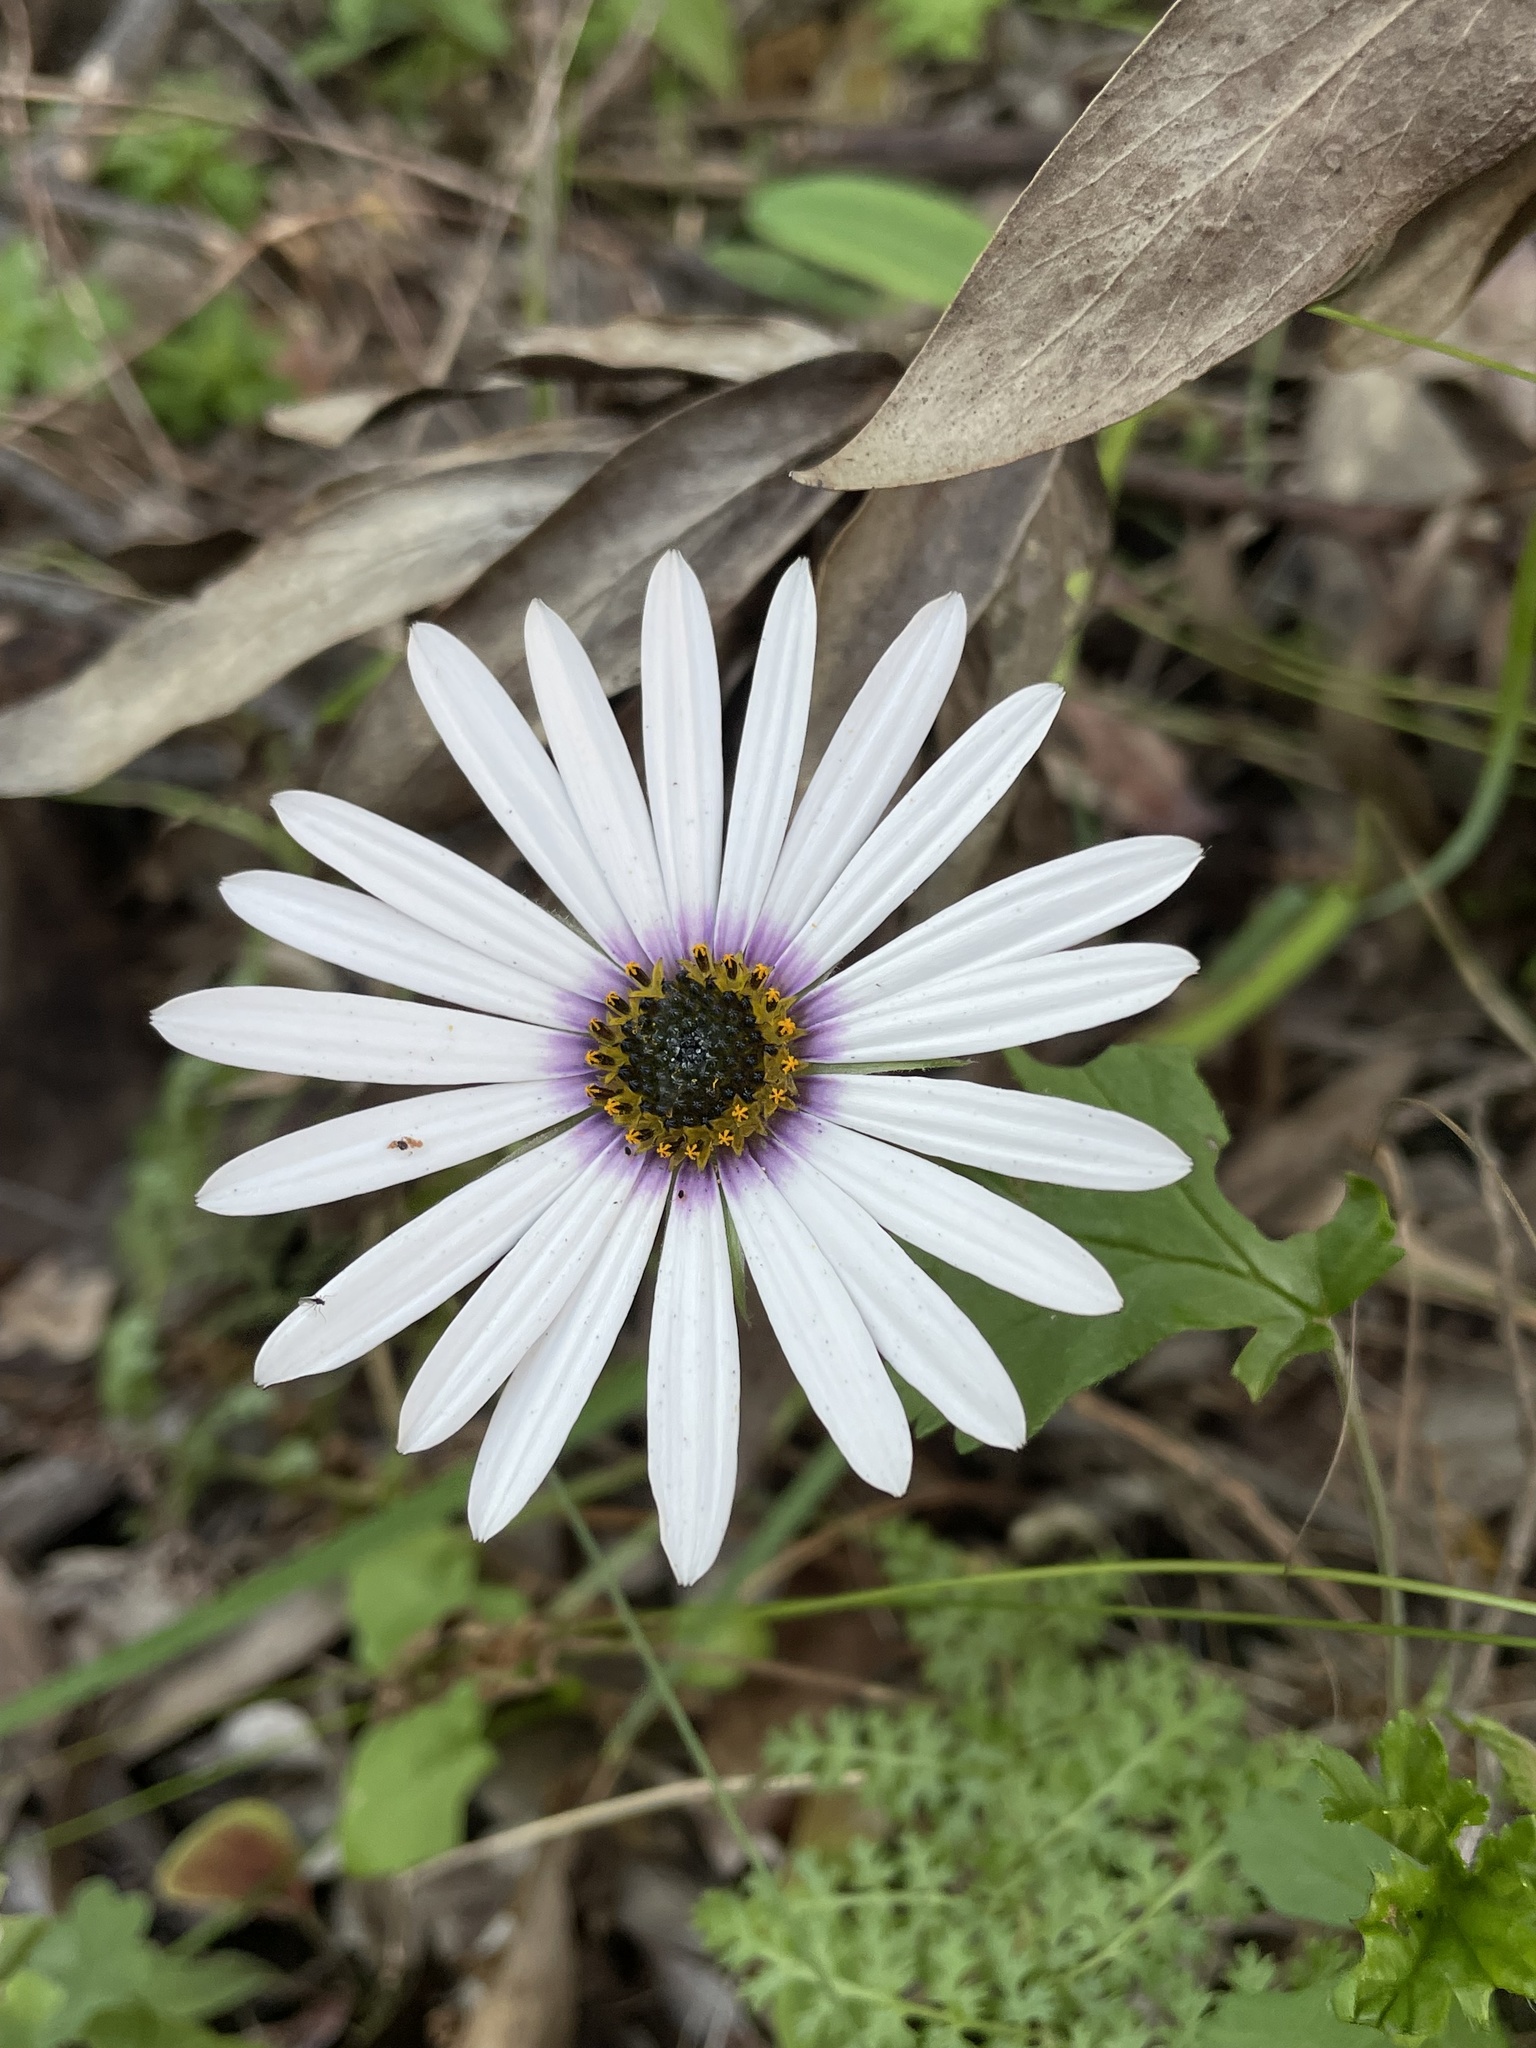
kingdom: Plantae
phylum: Tracheophyta
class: Magnoliopsida
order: Asterales
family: Asteraceae
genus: Dimorphotheca
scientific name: Dimorphotheca nudicaulis
